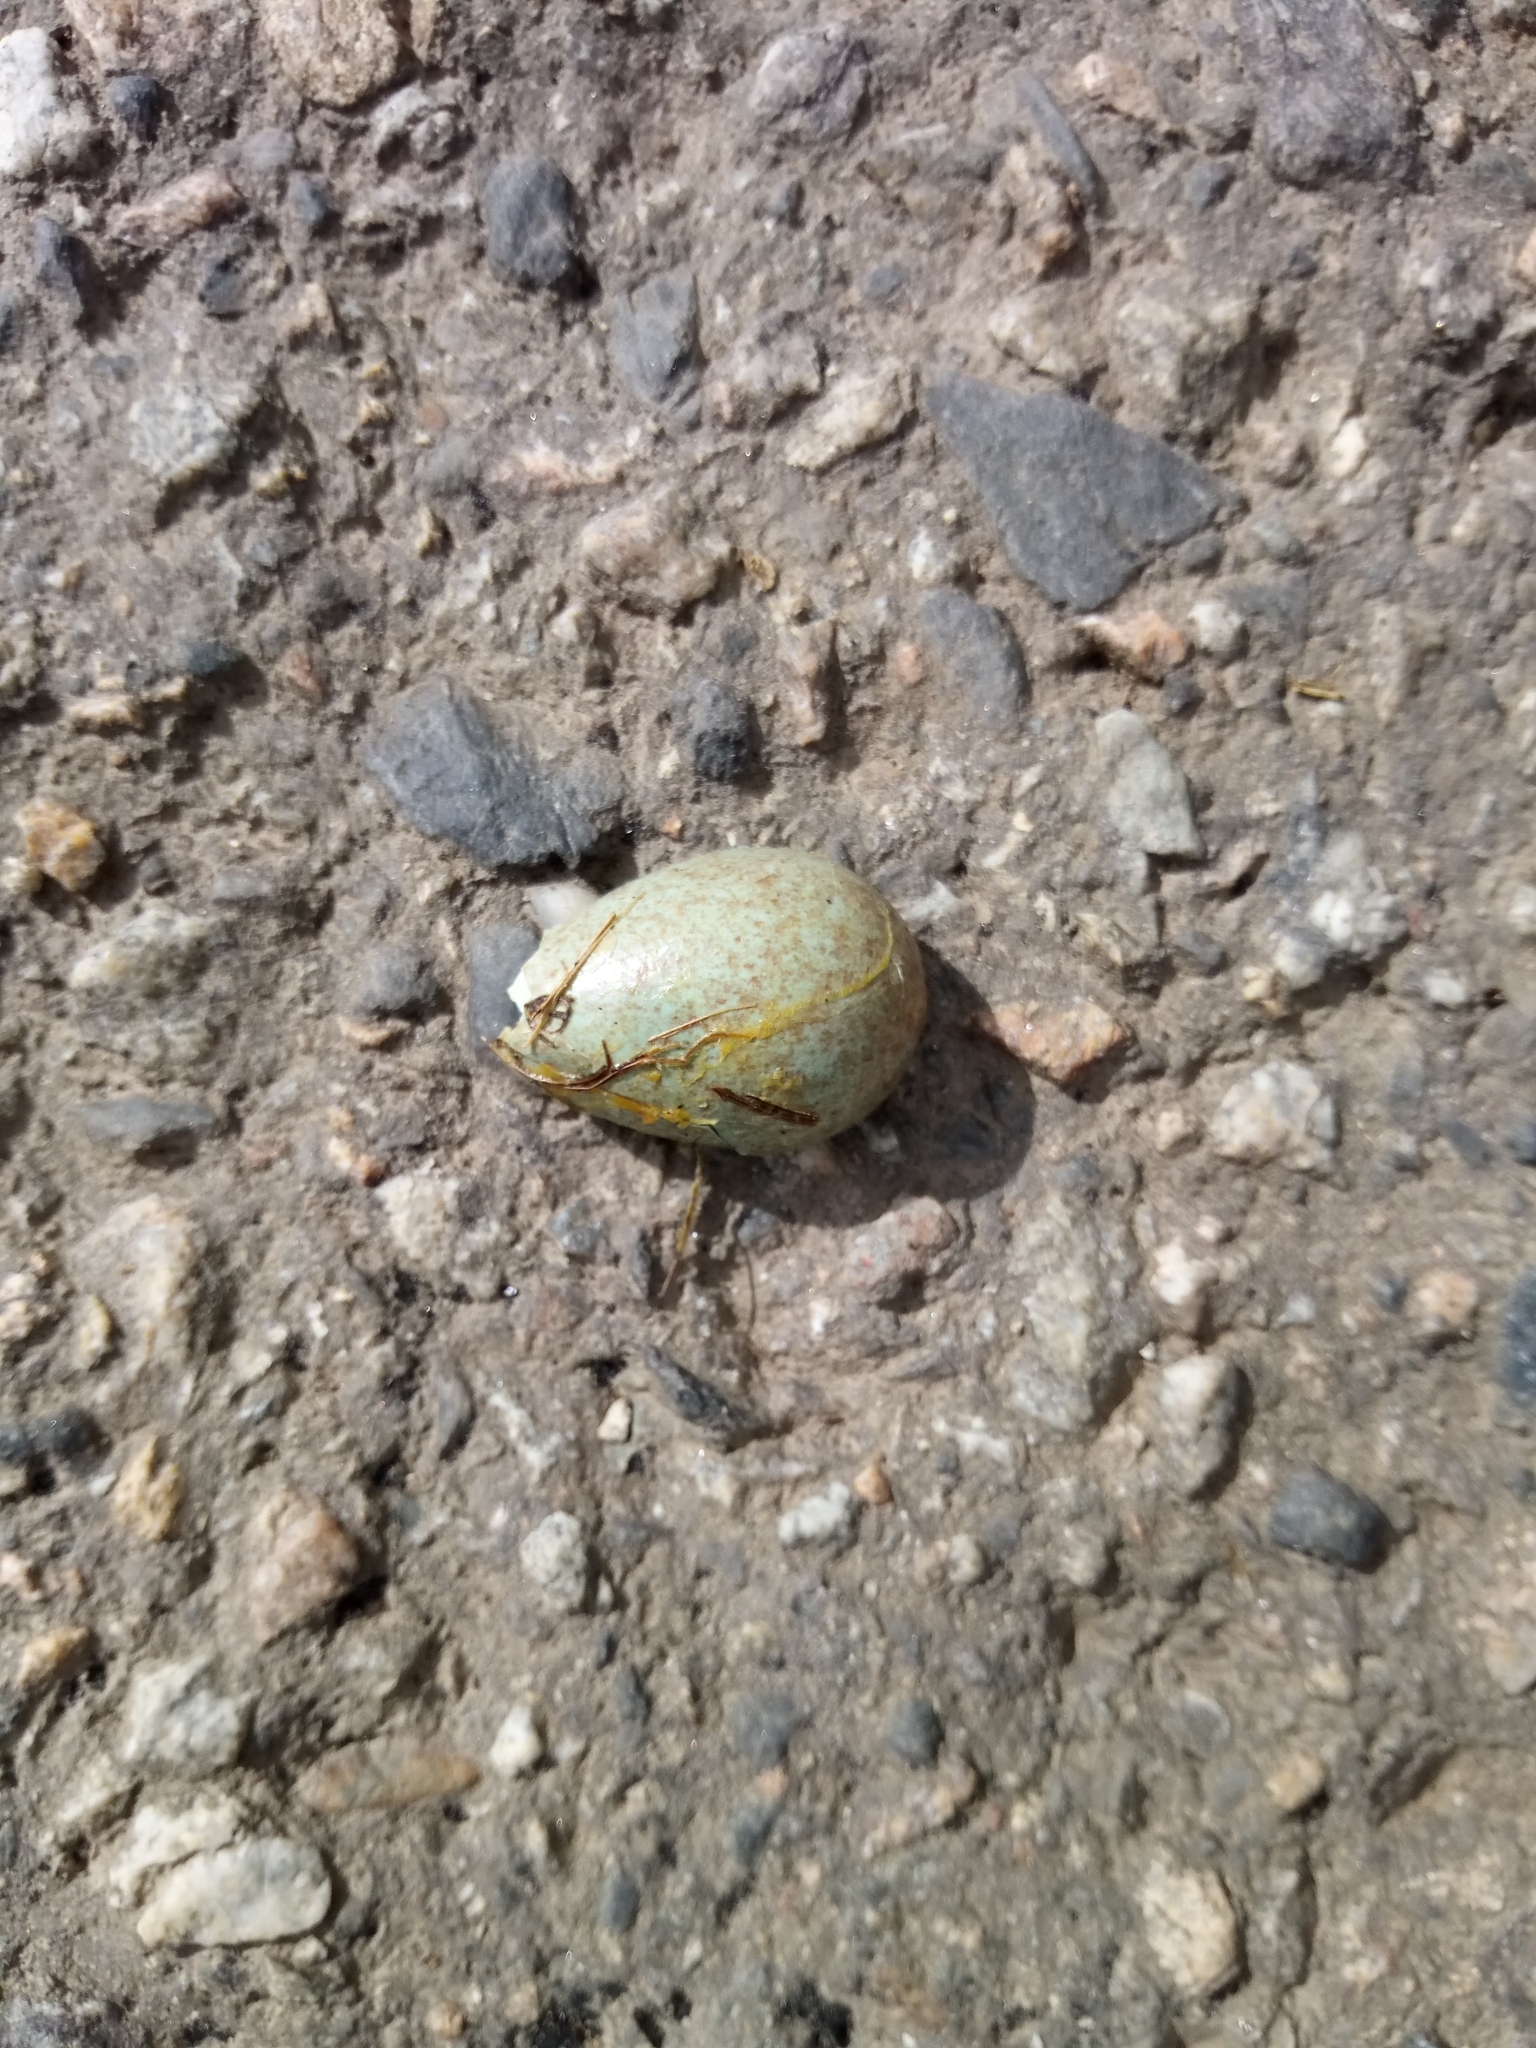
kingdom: Animalia
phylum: Chordata
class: Aves
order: Passeriformes
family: Turdidae
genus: Turdus
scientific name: Turdus merula
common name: Common blackbird
